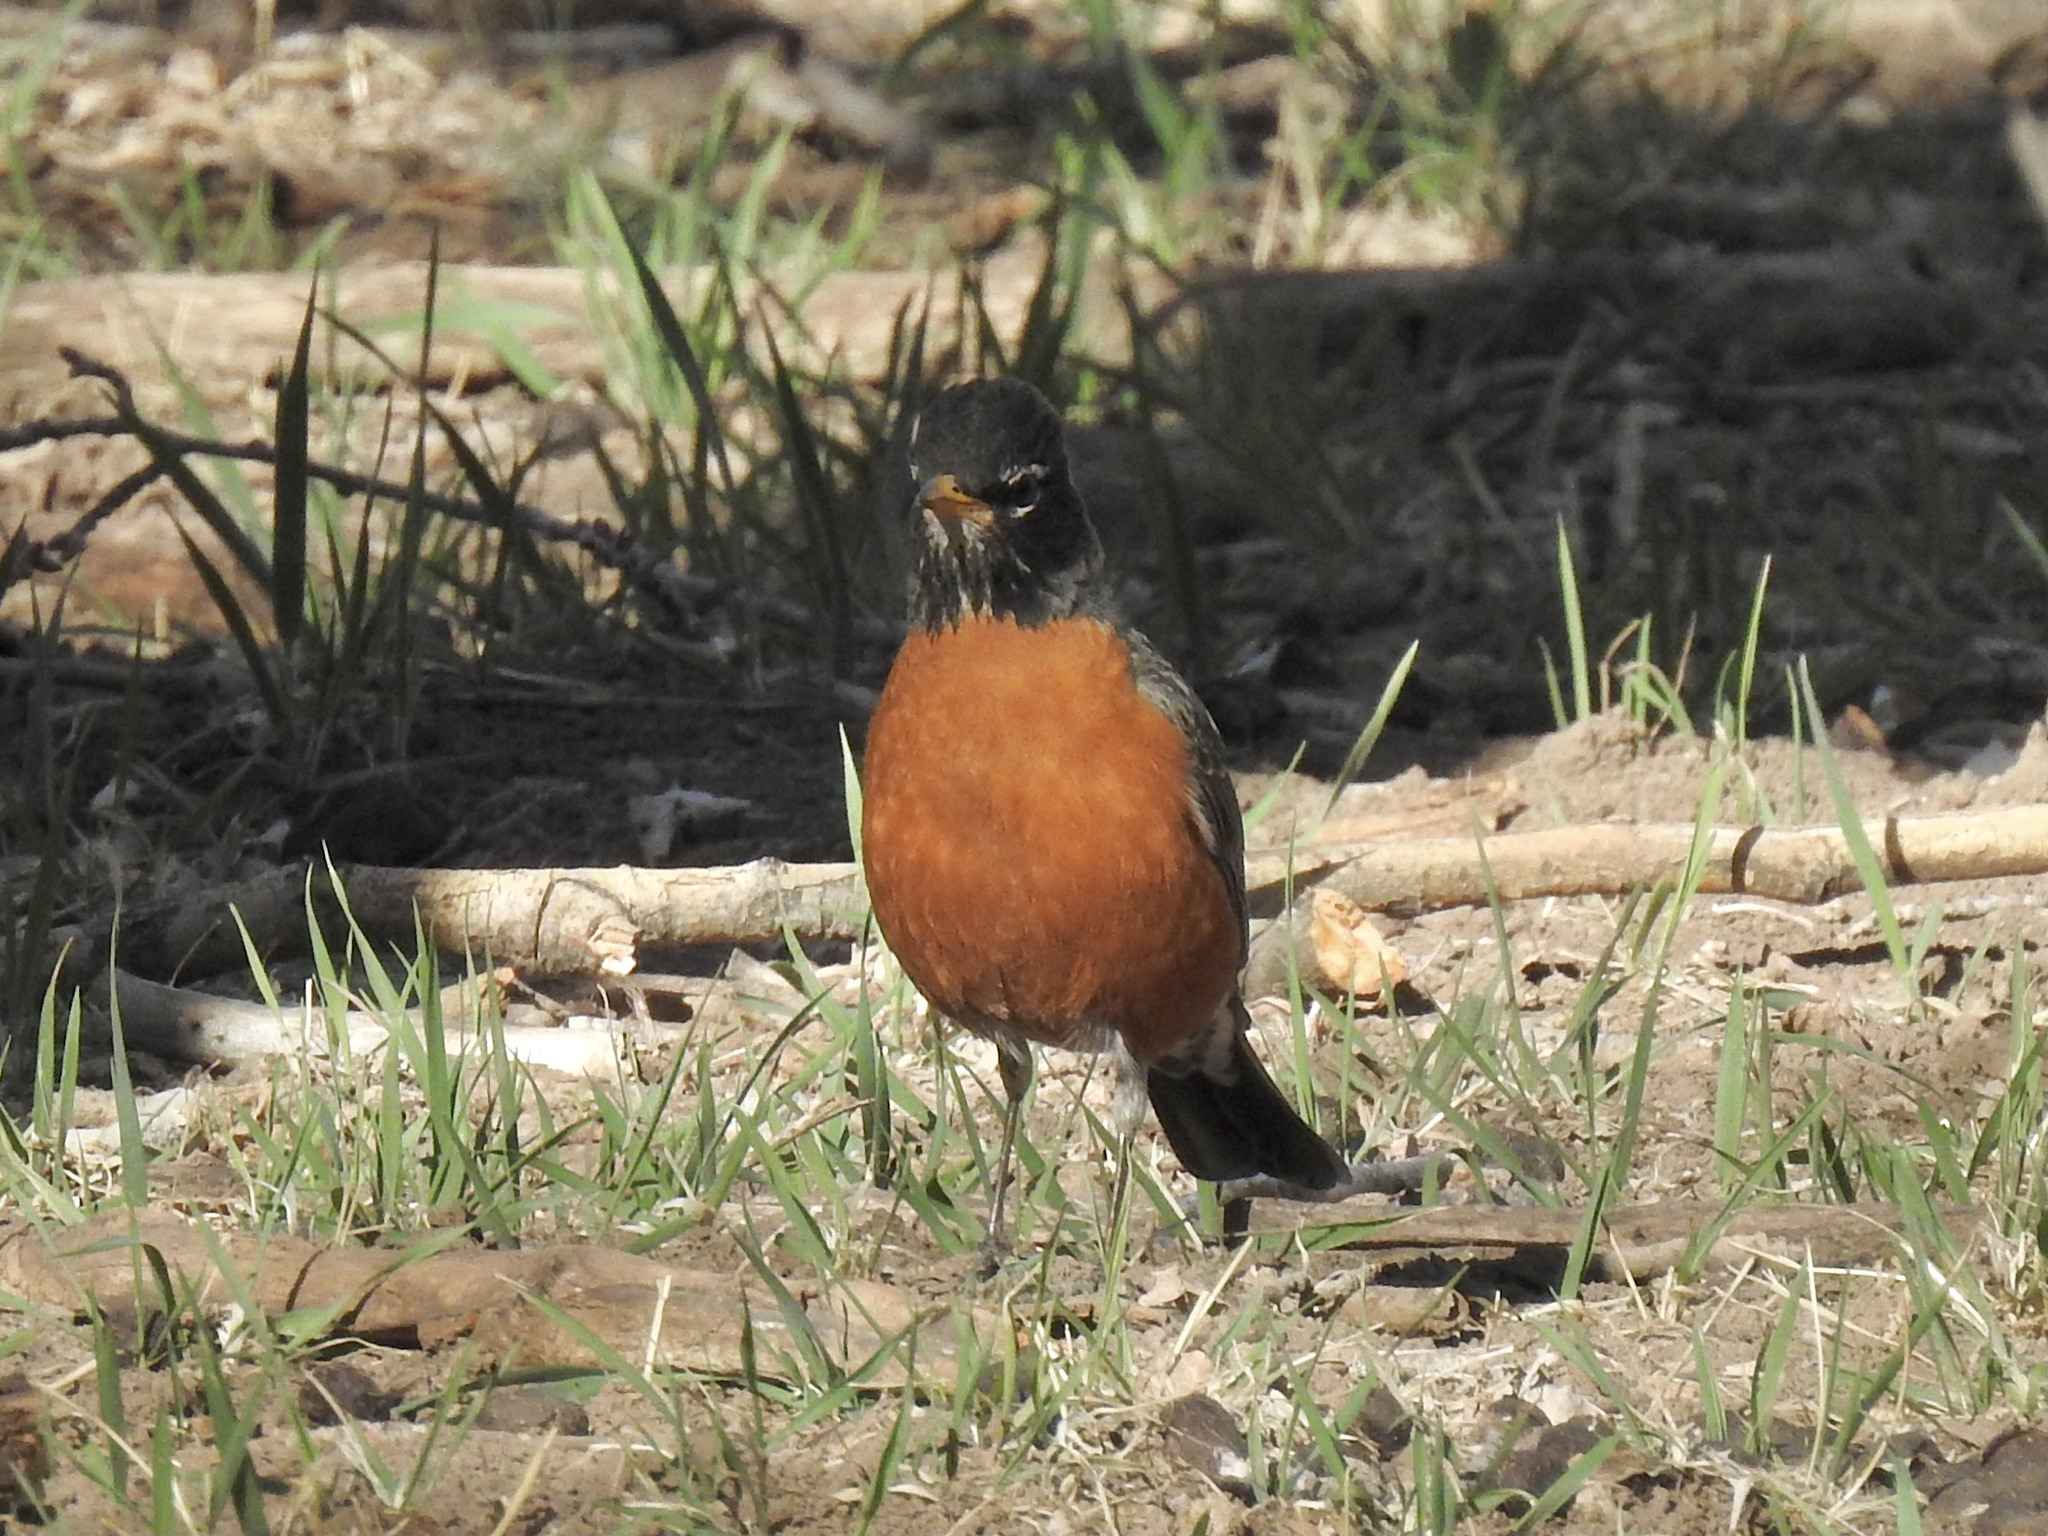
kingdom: Animalia
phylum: Chordata
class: Aves
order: Passeriformes
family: Turdidae
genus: Turdus
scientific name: Turdus migratorius
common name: American robin
